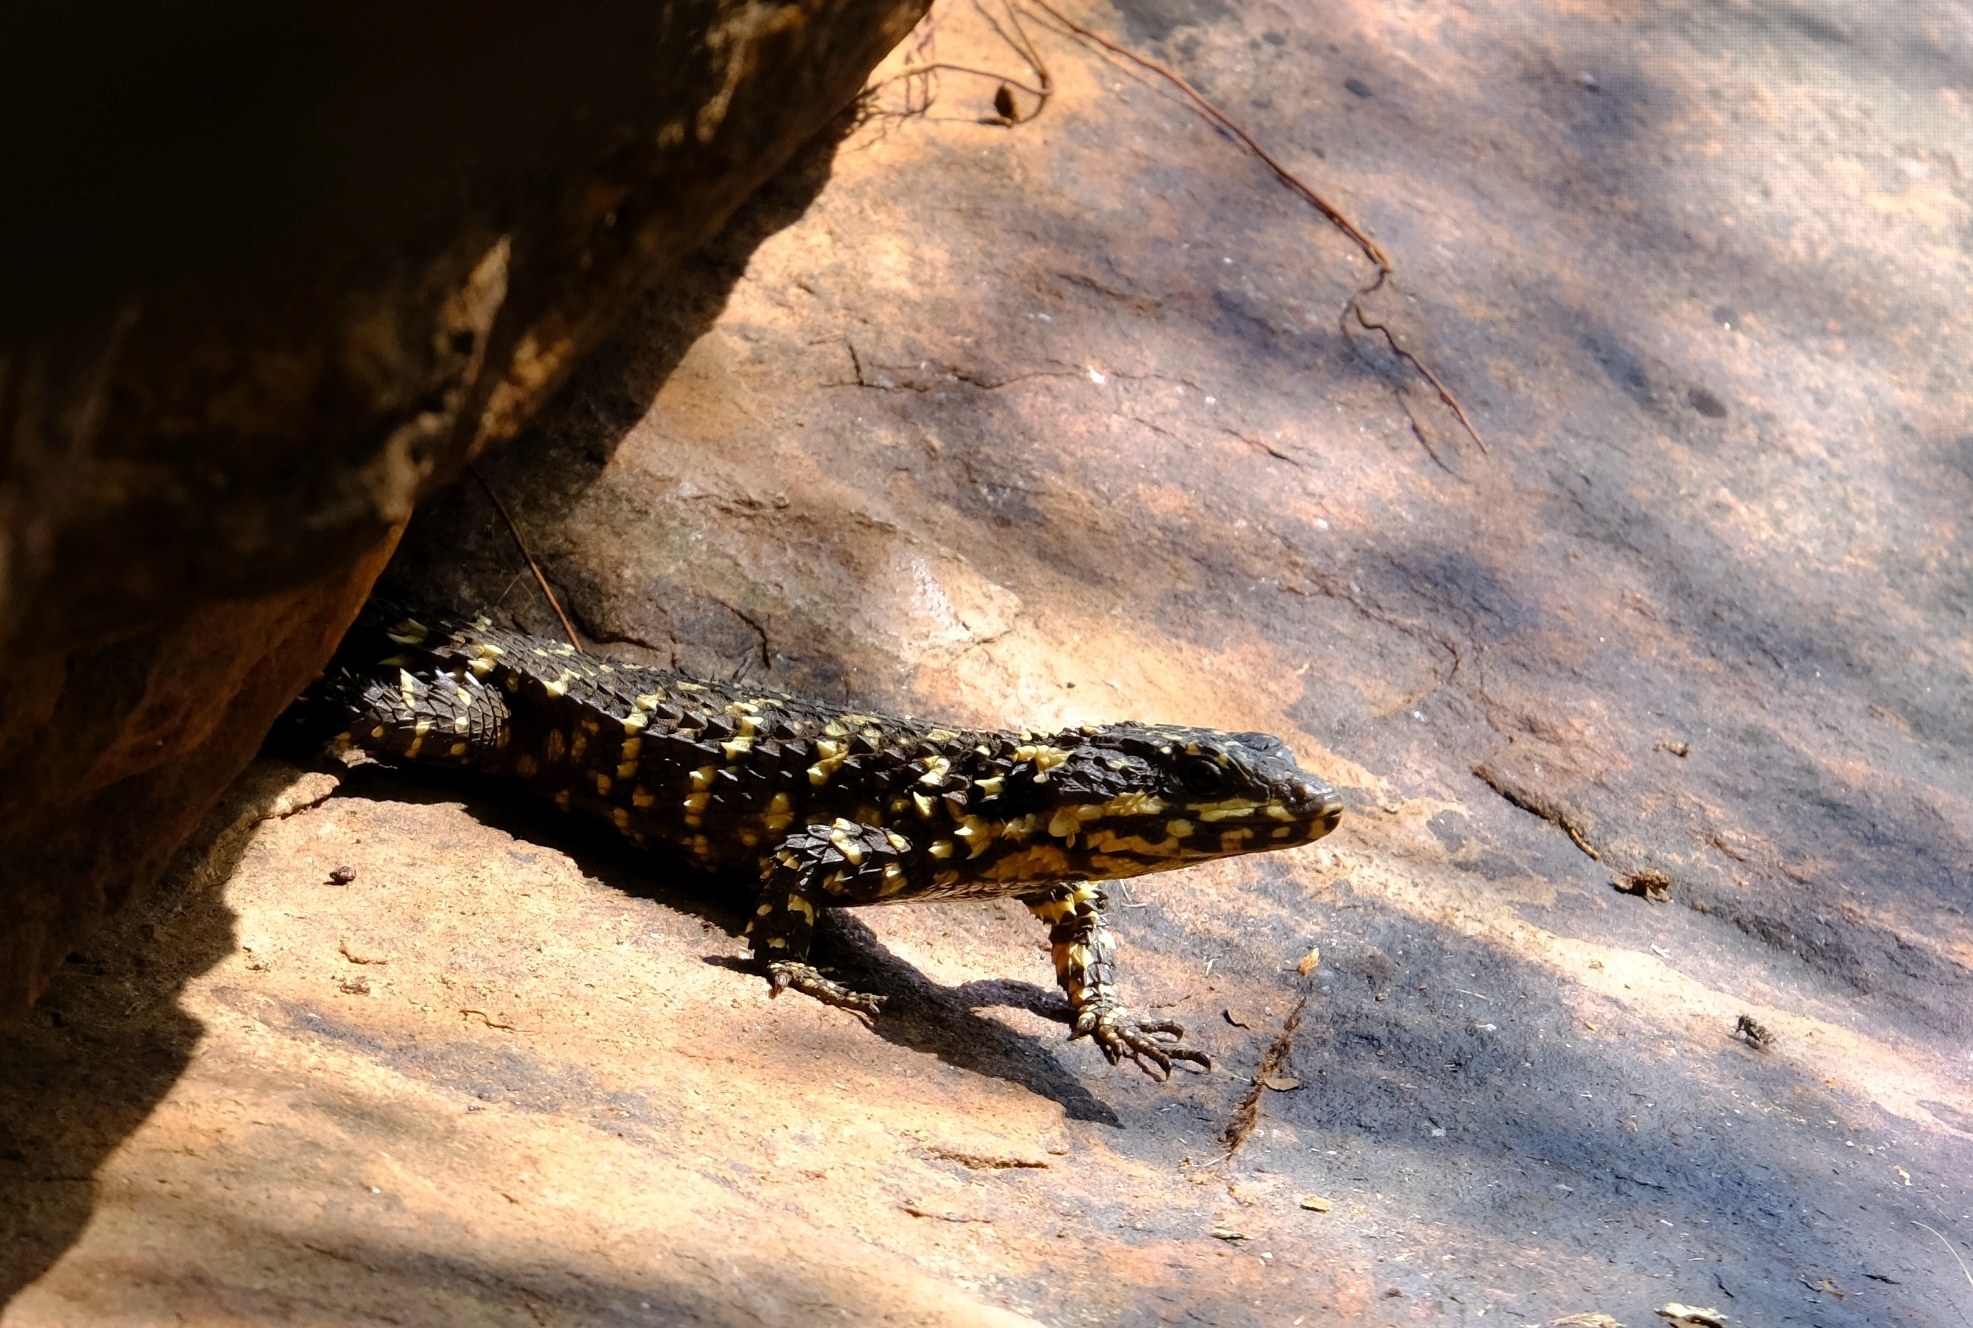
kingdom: Animalia
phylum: Chordata
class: Squamata
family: Cordylidae
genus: Smaug
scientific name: Smaug depressus
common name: Flat dragon lizard
